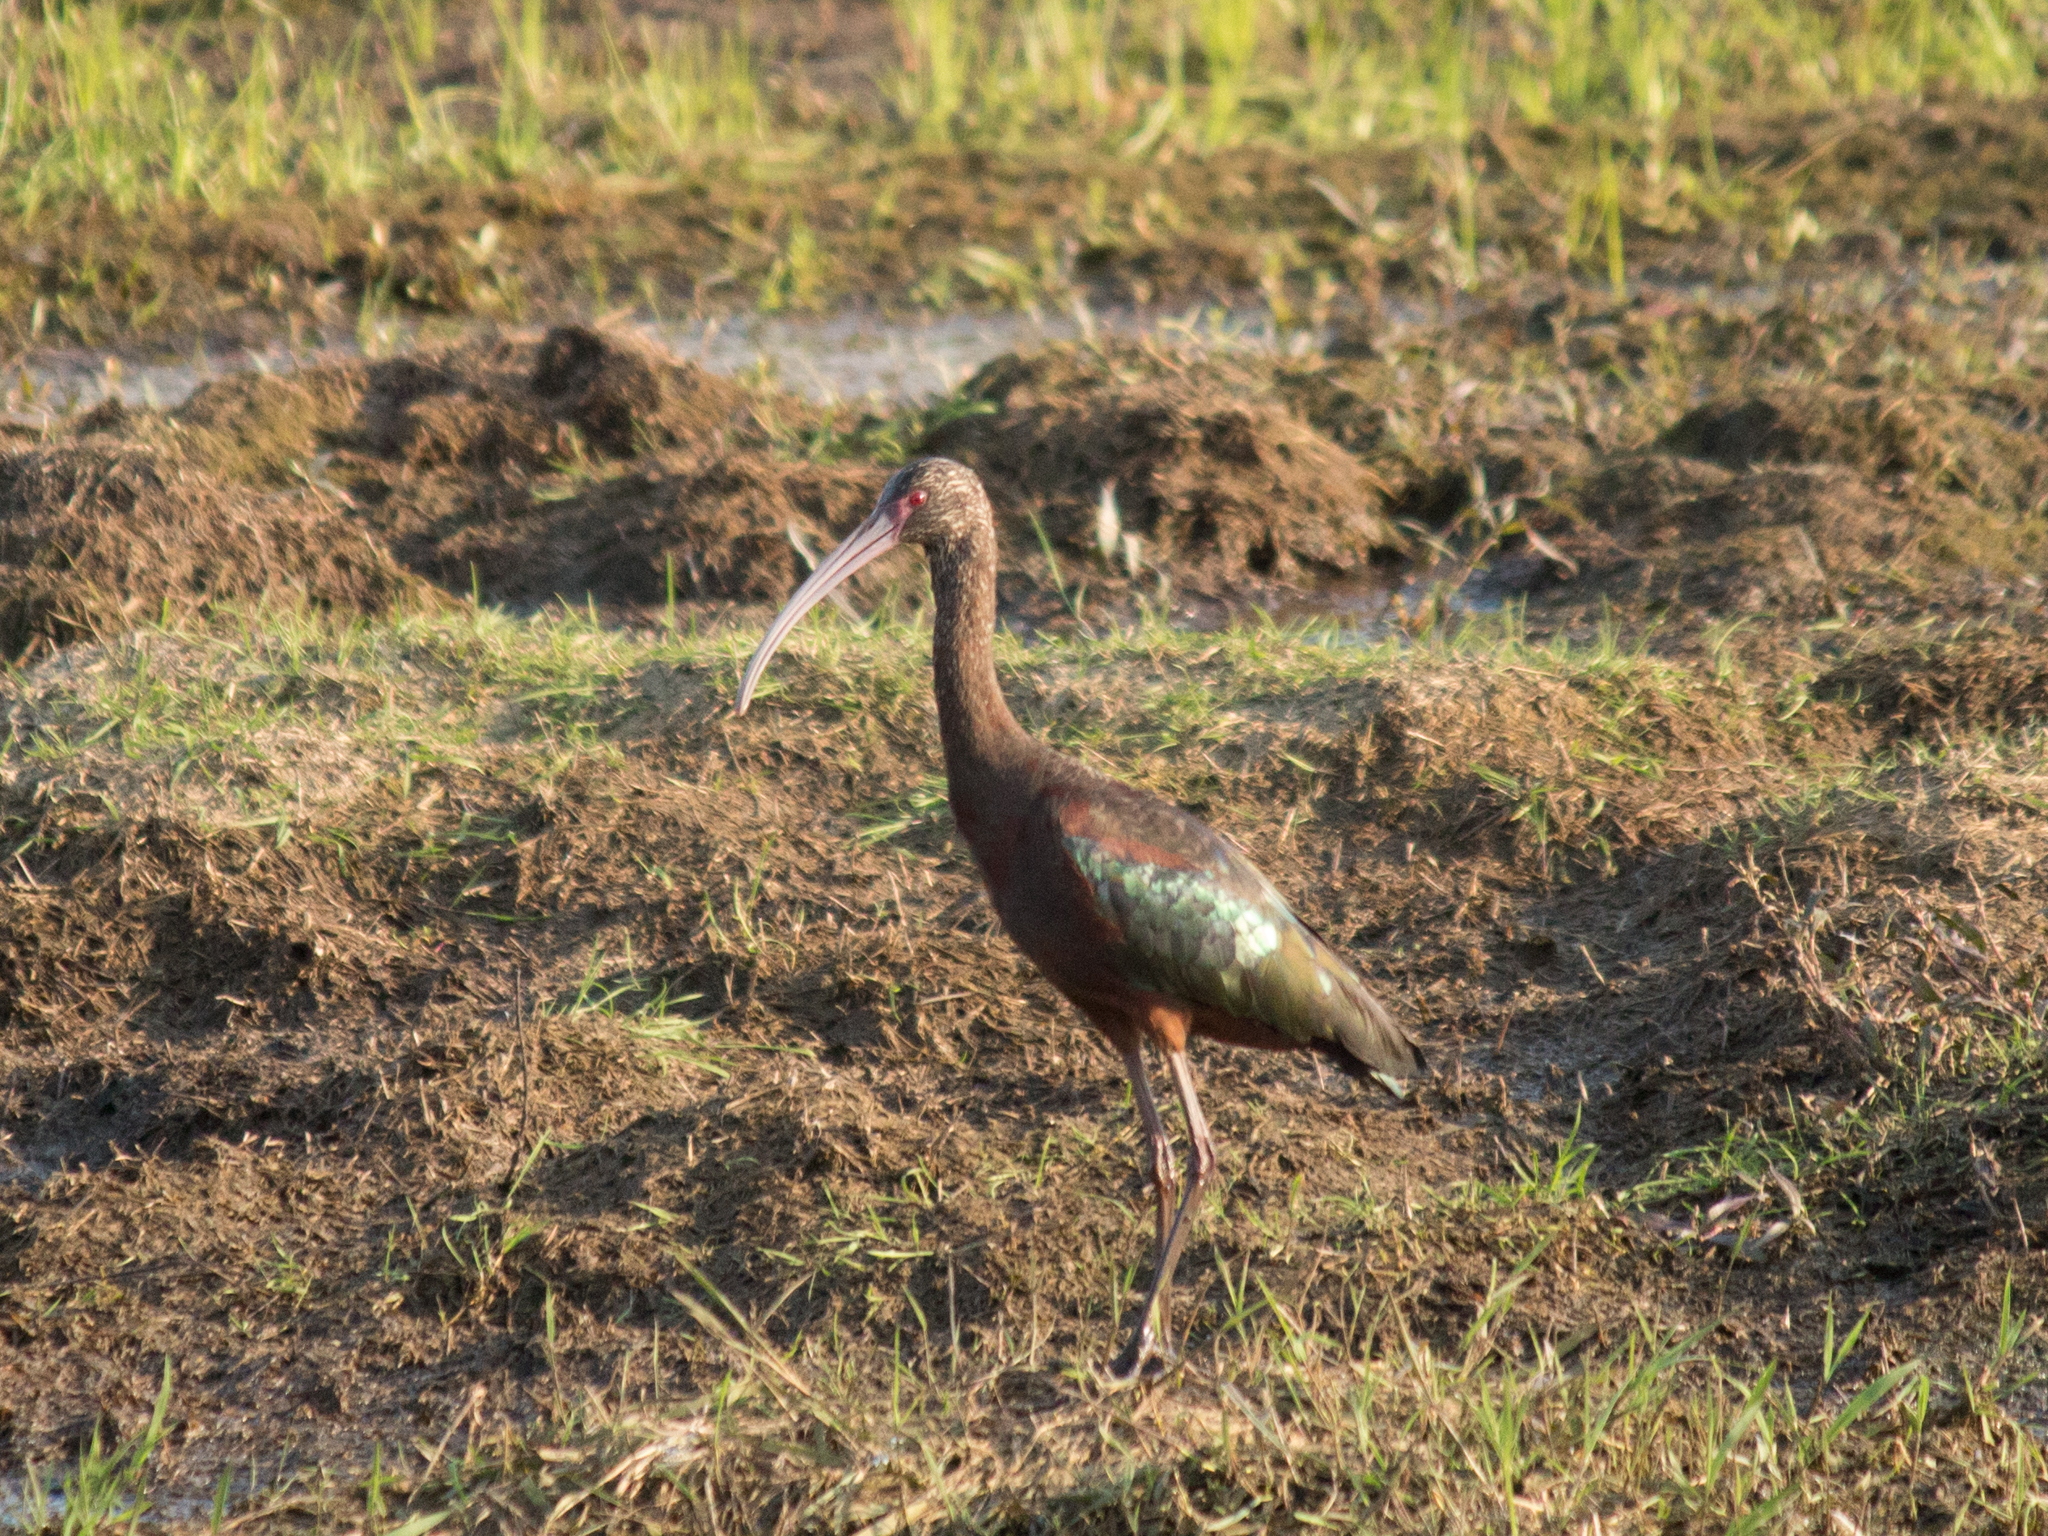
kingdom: Animalia
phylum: Chordata
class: Aves
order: Pelecaniformes
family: Threskiornithidae
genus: Plegadis
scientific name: Plegadis chihi
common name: White-faced ibis
